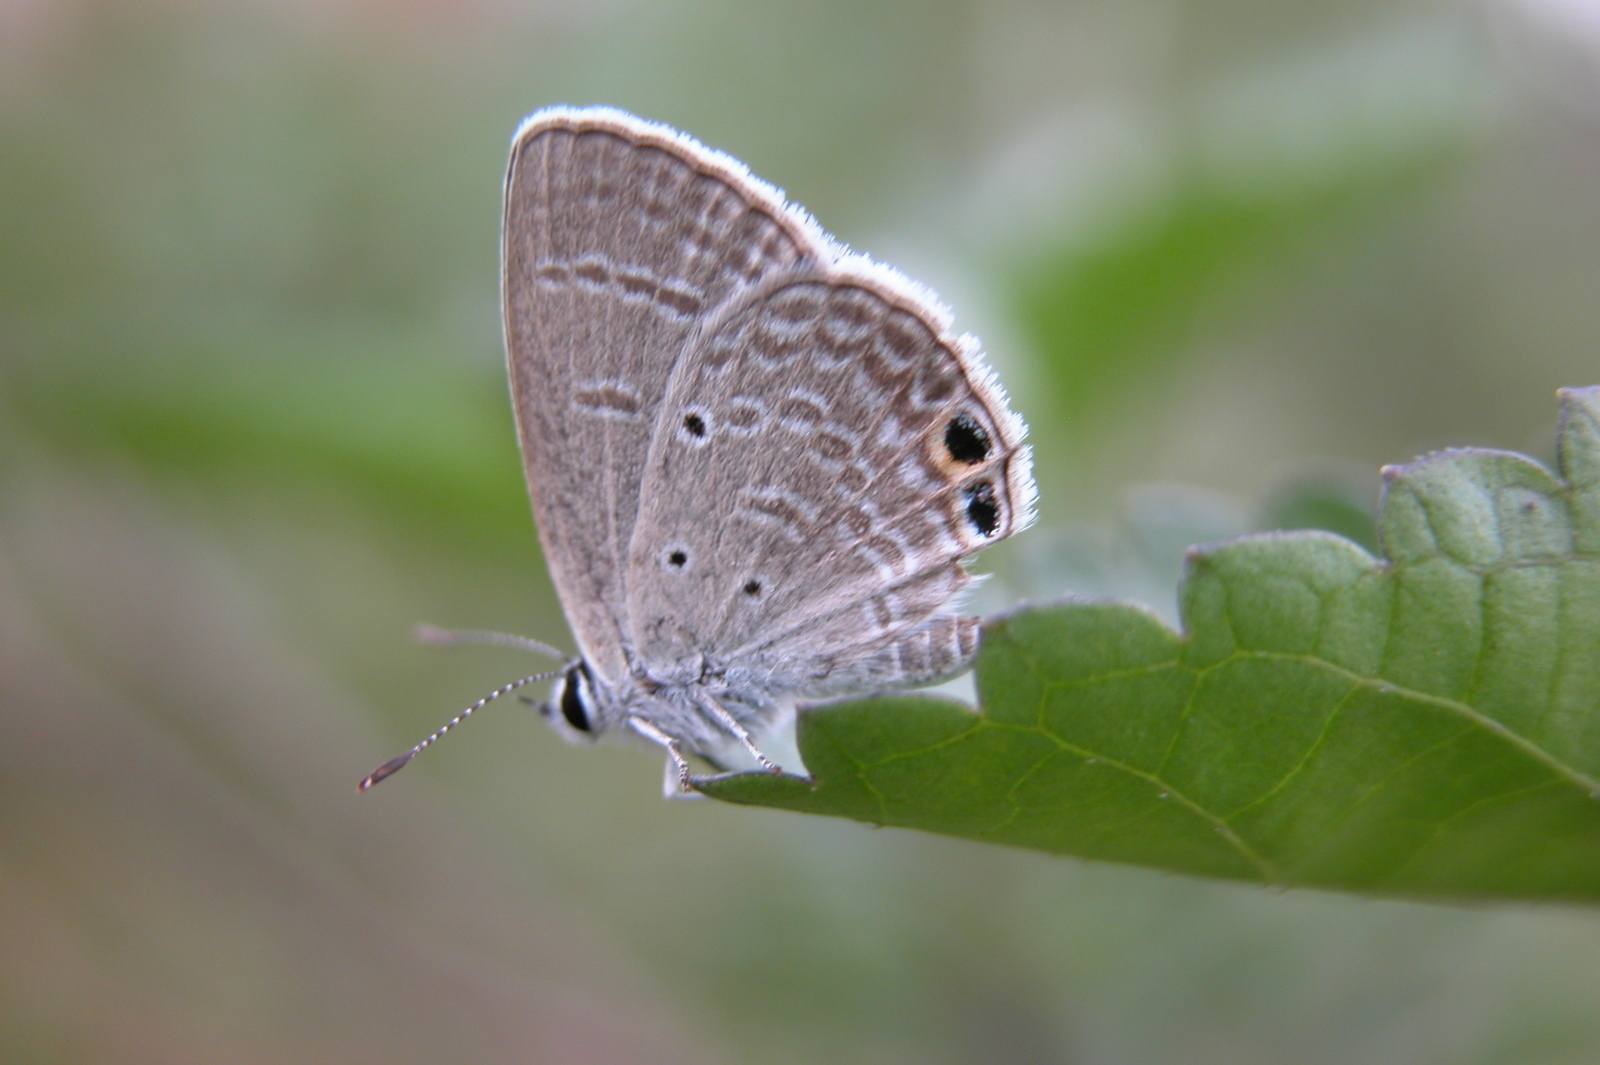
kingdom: Animalia
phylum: Arthropoda
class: Insecta
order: Lepidoptera
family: Lycaenidae
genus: Chilades
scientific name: Chilades parrhasius
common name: Small cupid
